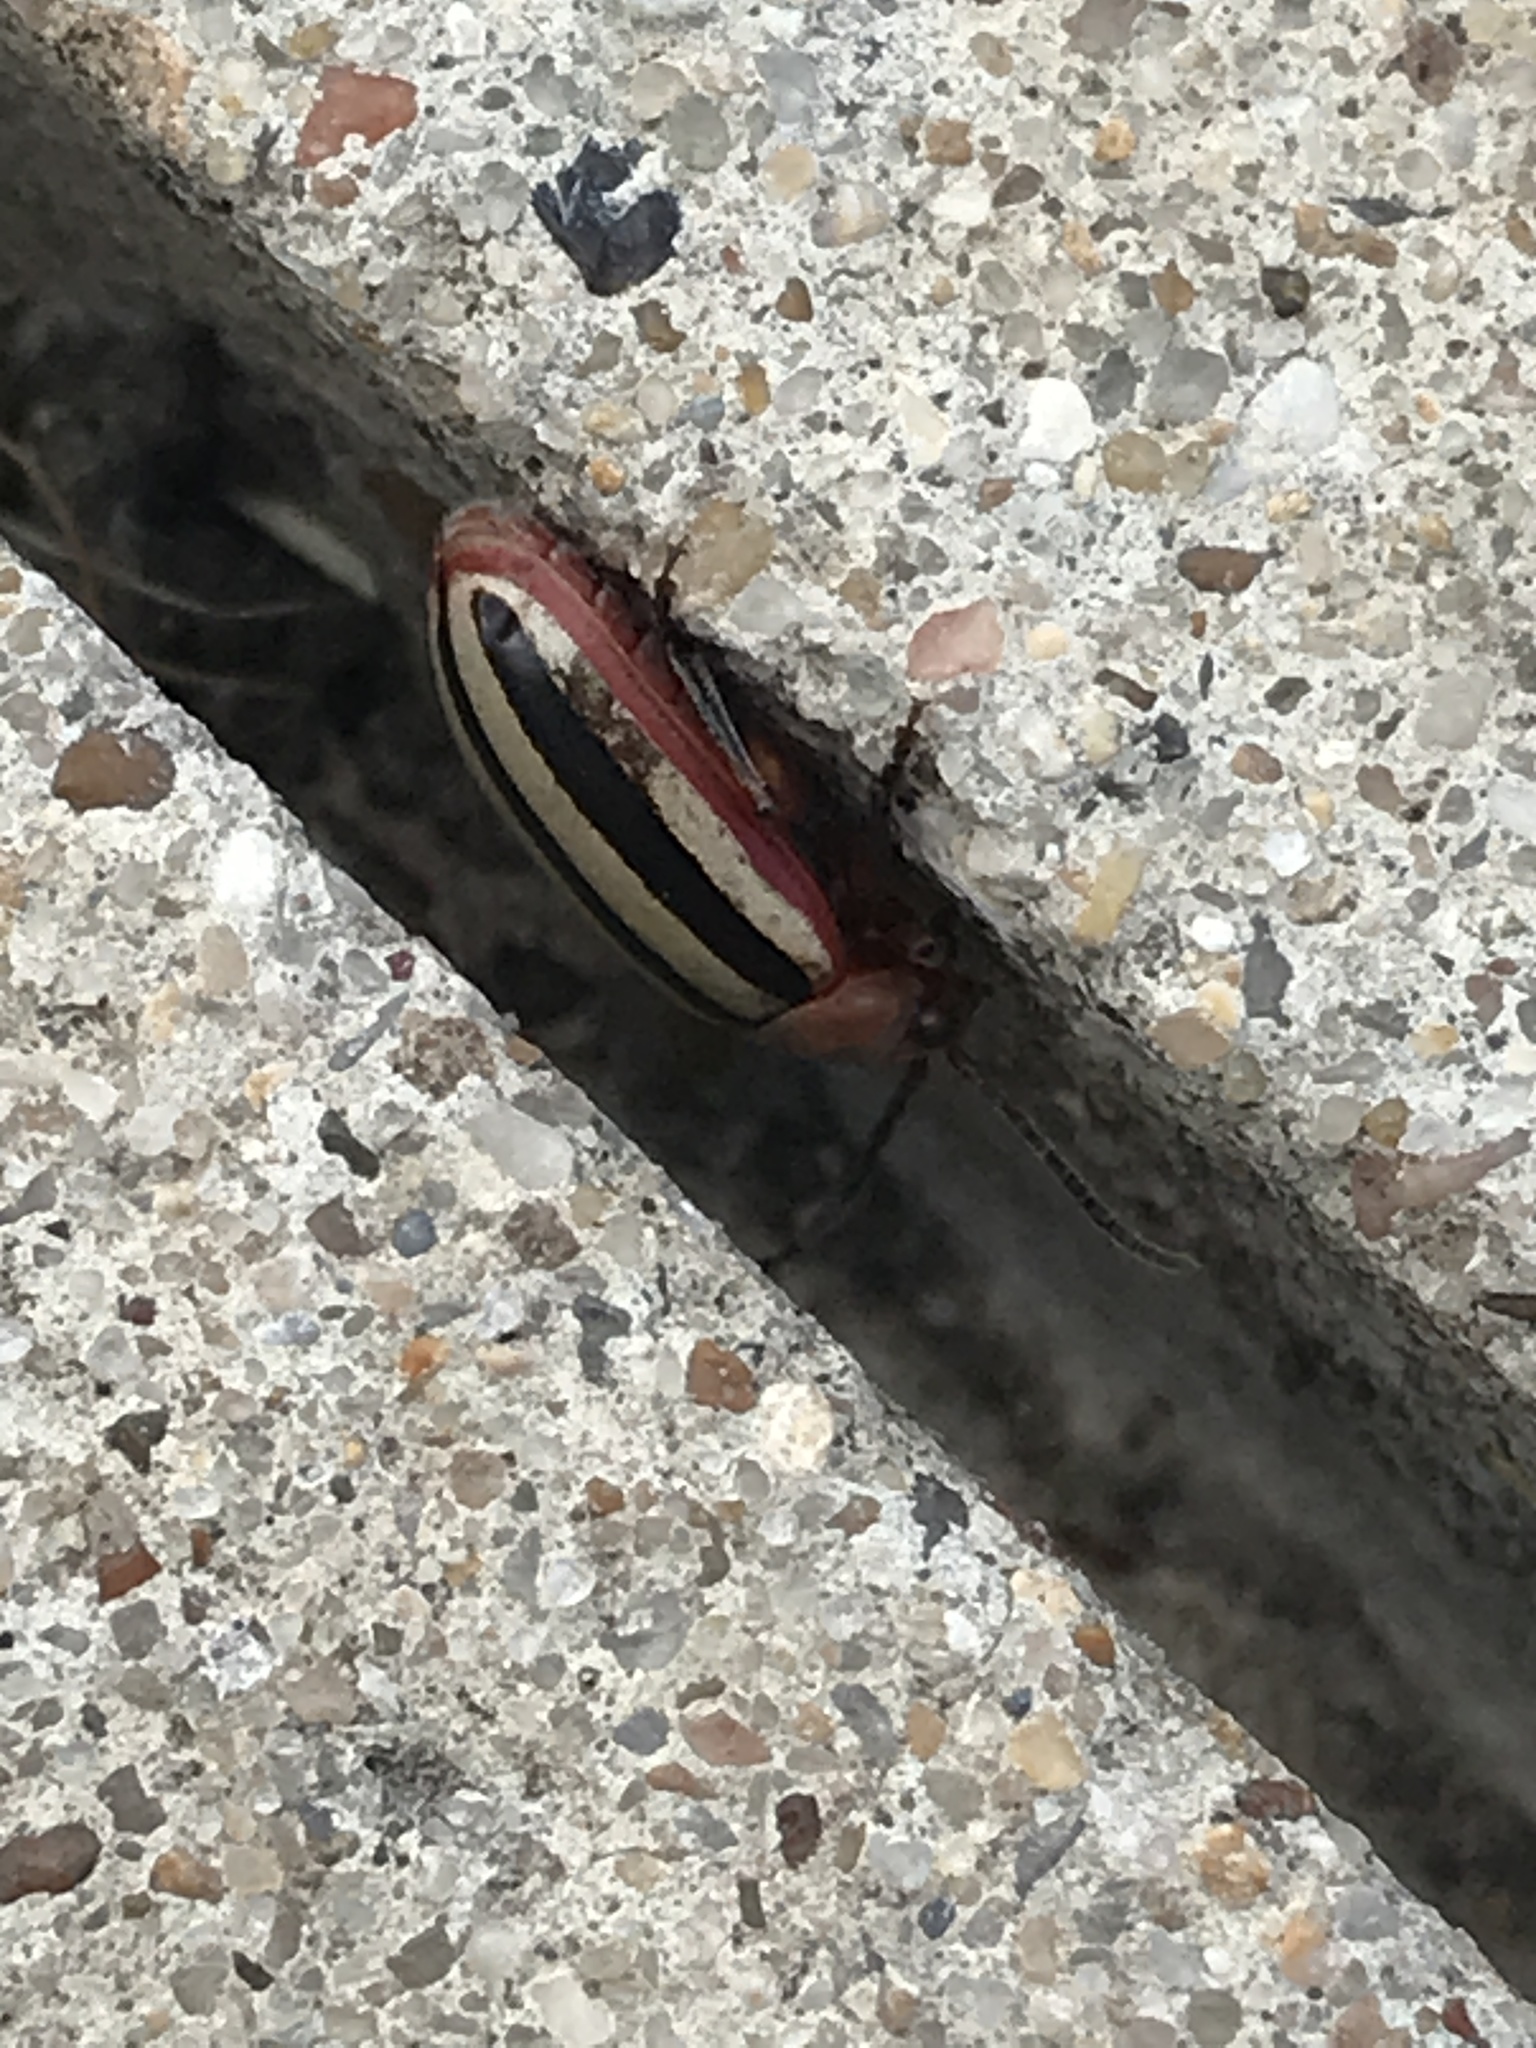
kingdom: Animalia
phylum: Arthropoda
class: Insecta
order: Coleoptera
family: Chrysomelidae
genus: Disonycha
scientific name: Disonycha leptolineata
